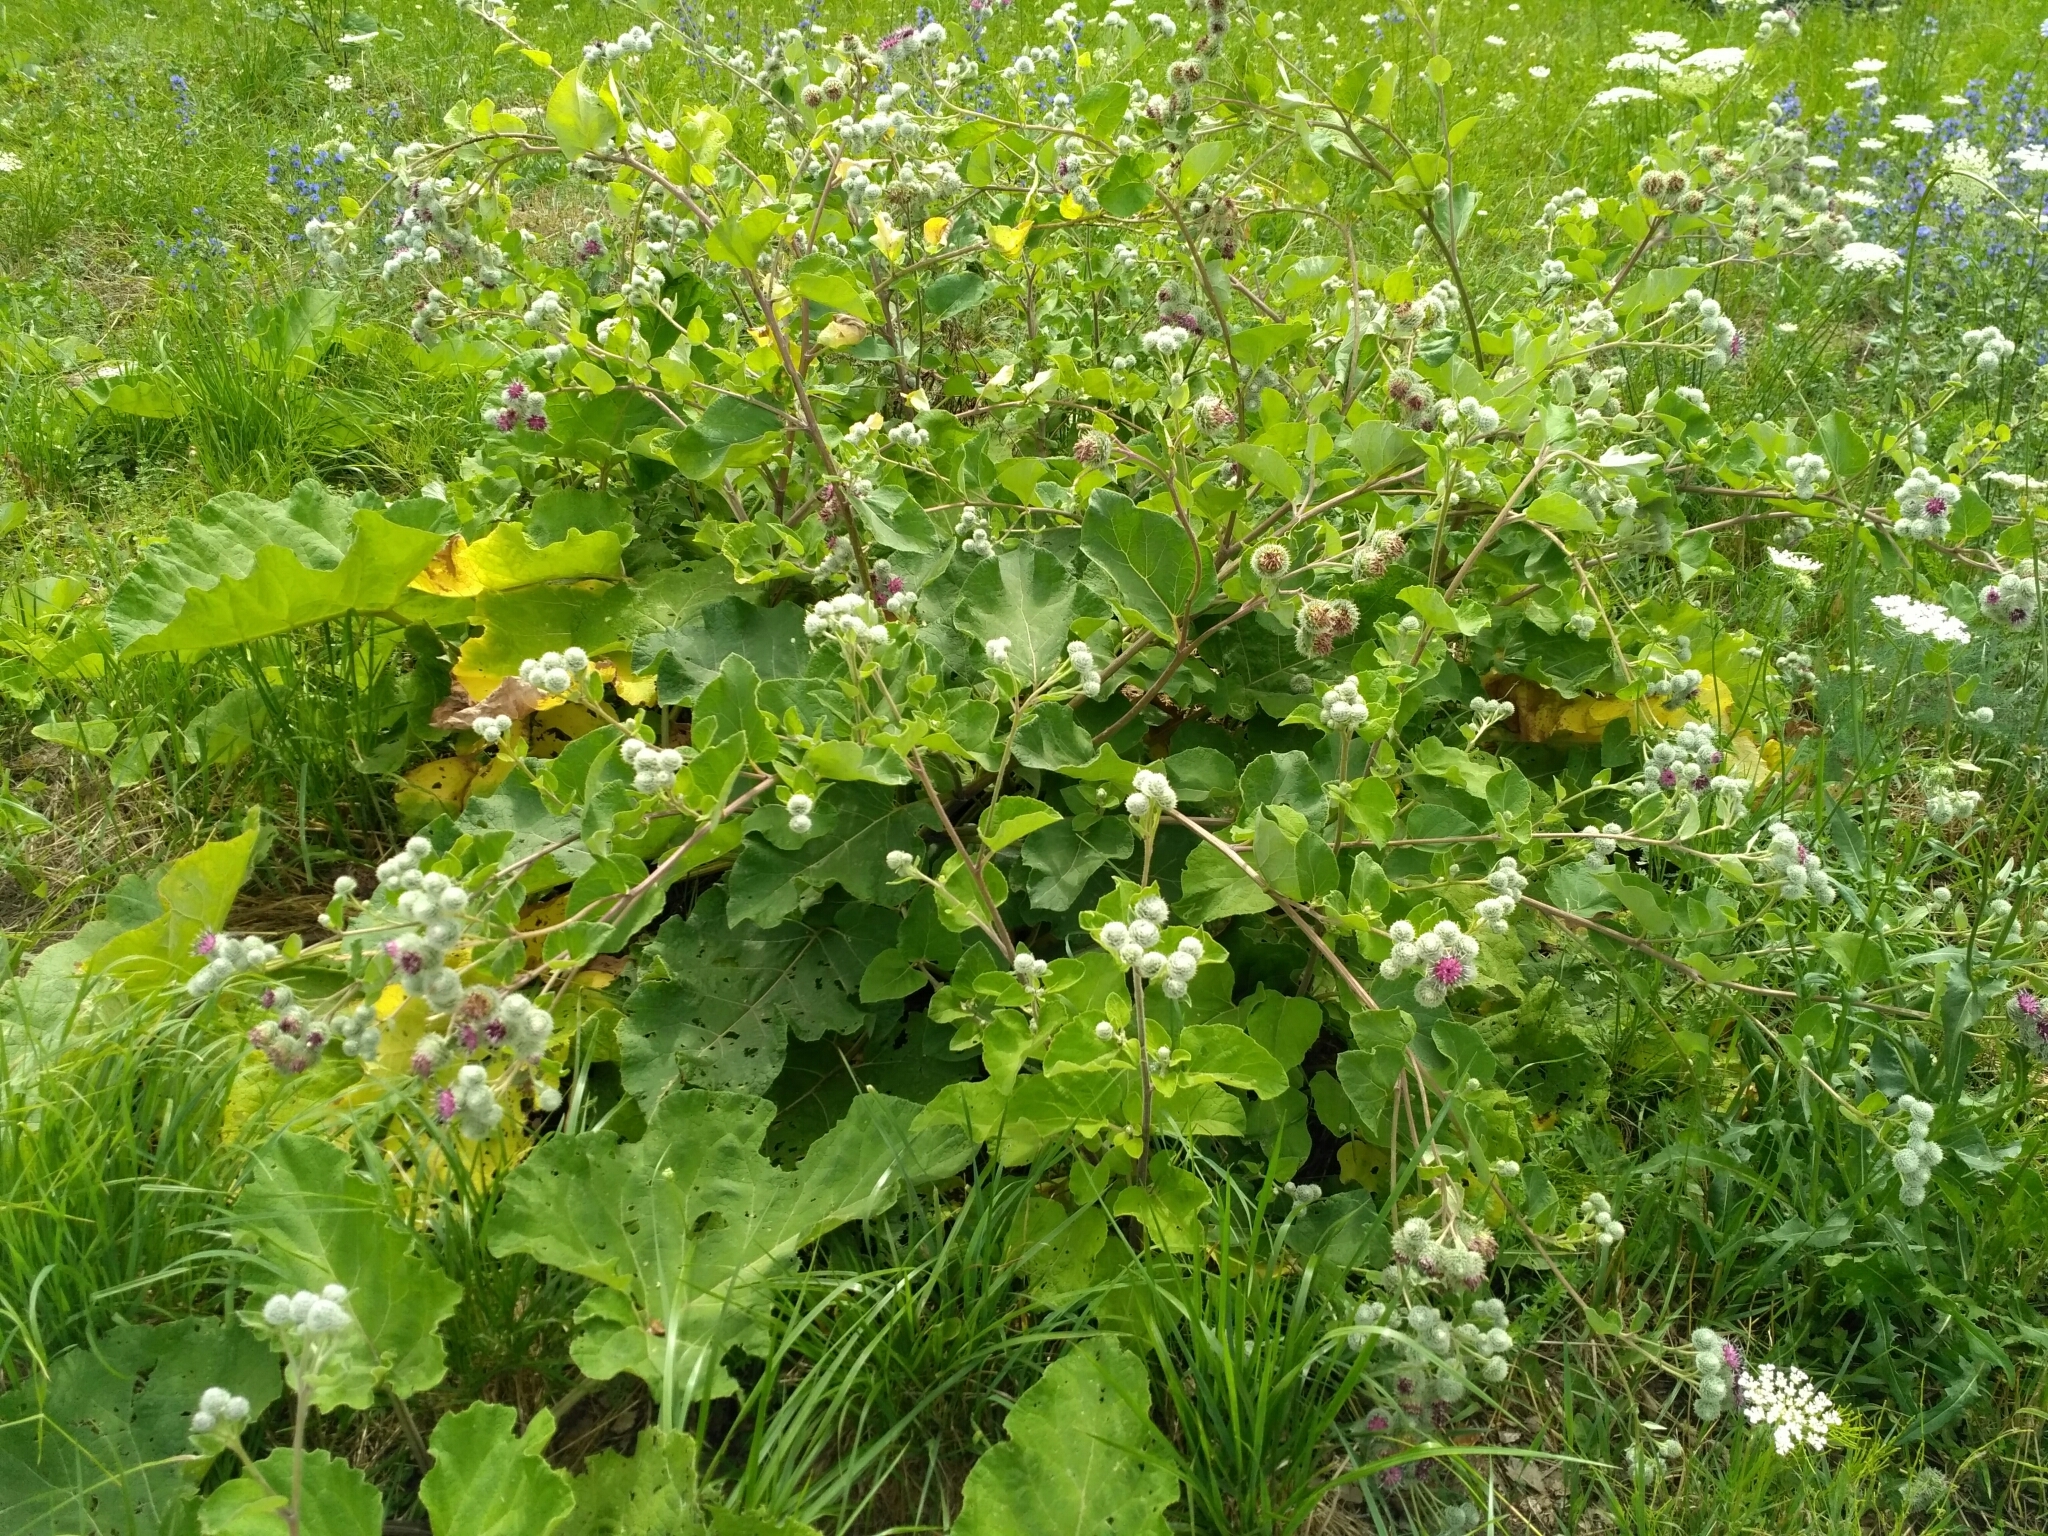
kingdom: Plantae
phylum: Tracheophyta
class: Magnoliopsida
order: Asterales
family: Asteraceae
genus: Arctium
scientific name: Arctium tomentosum
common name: Woolly burdock
